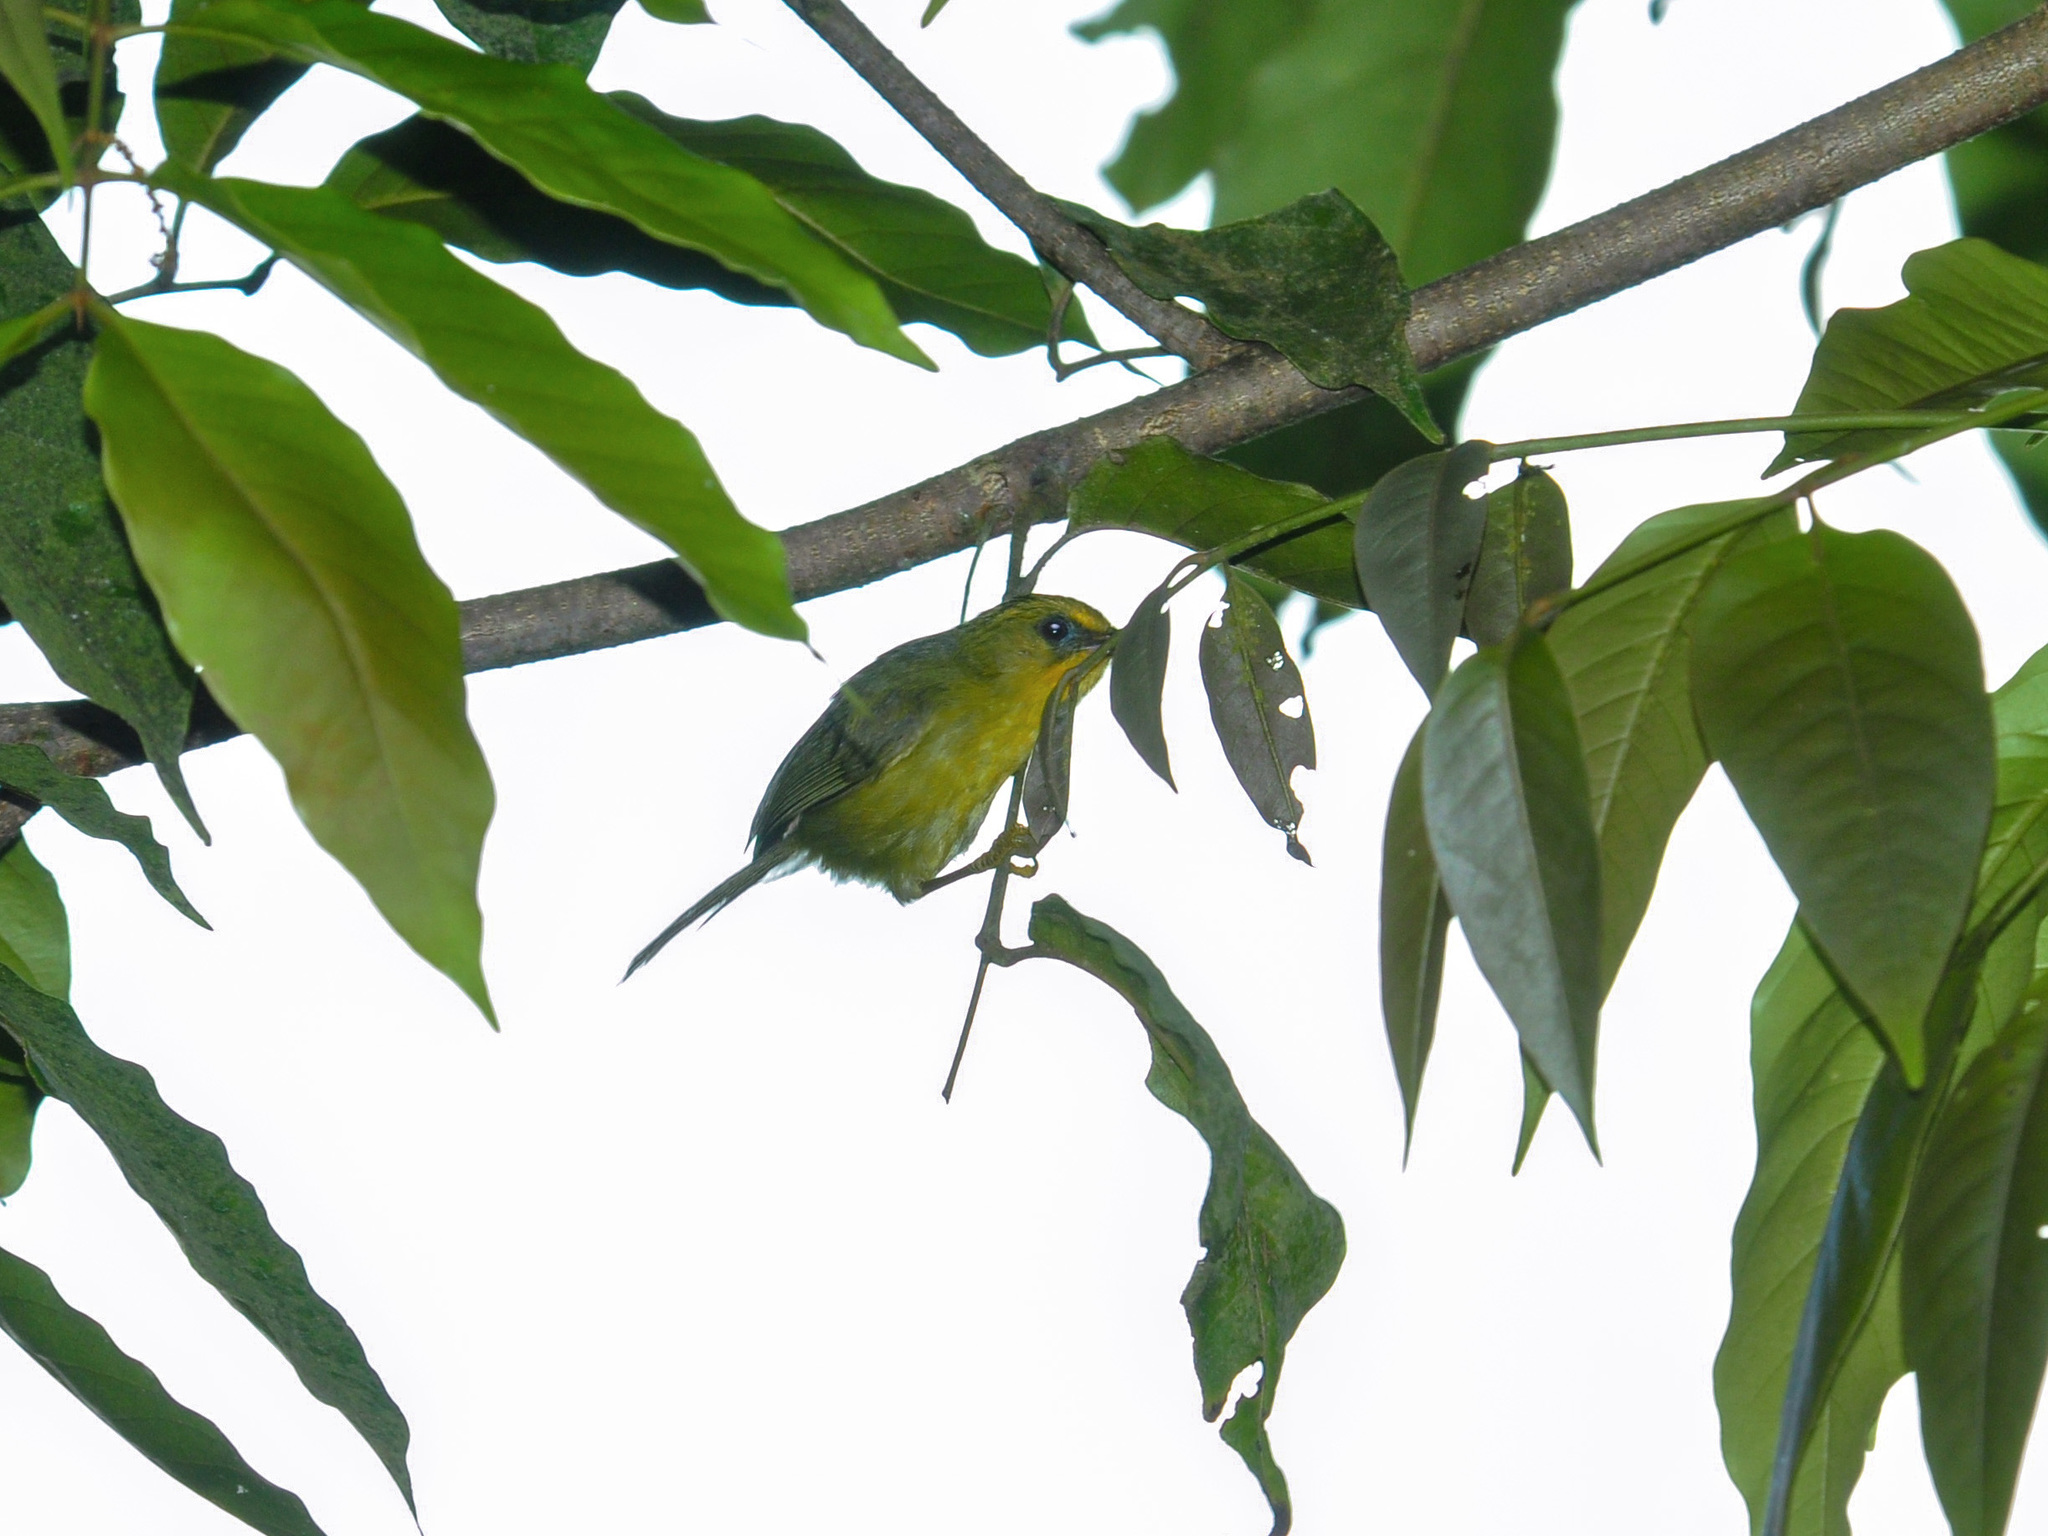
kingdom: Animalia
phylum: Chordata
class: Aves
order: Passeriformes
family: Timaliidae
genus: Stachyridopsis
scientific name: Stachyridopsis chrysaea
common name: Golden babbler
